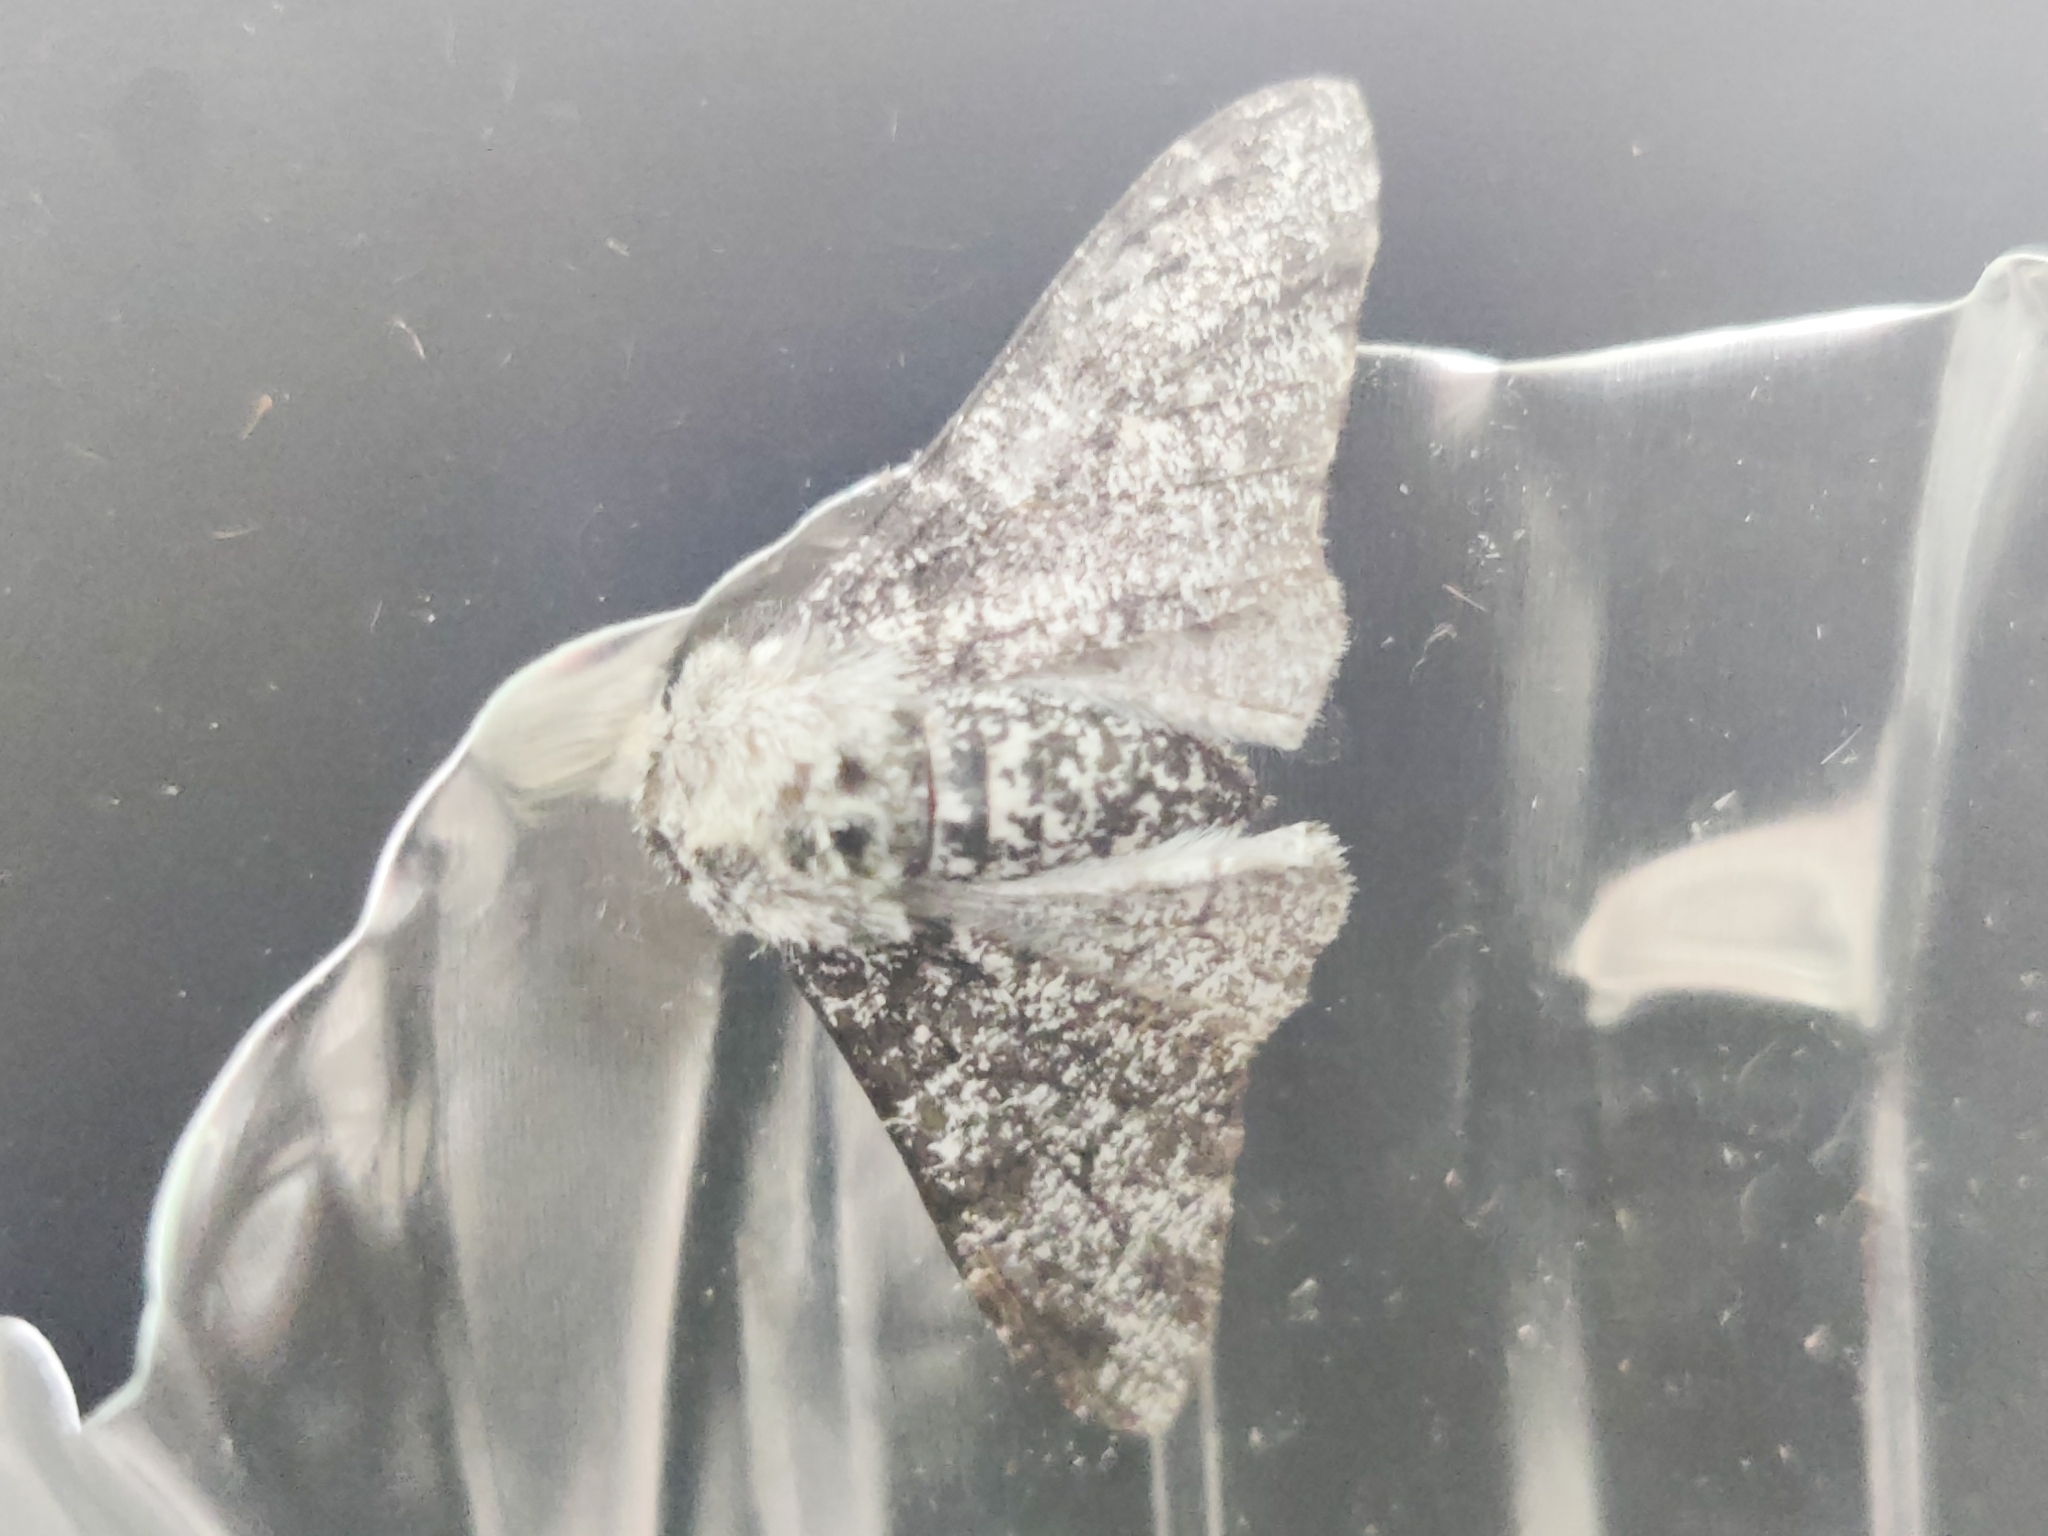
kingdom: Animalia
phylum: Arthropoda
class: Insecta
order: Lepidoptera
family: Geometridae
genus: Biston
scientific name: Biston betularia
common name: Peppered moth
